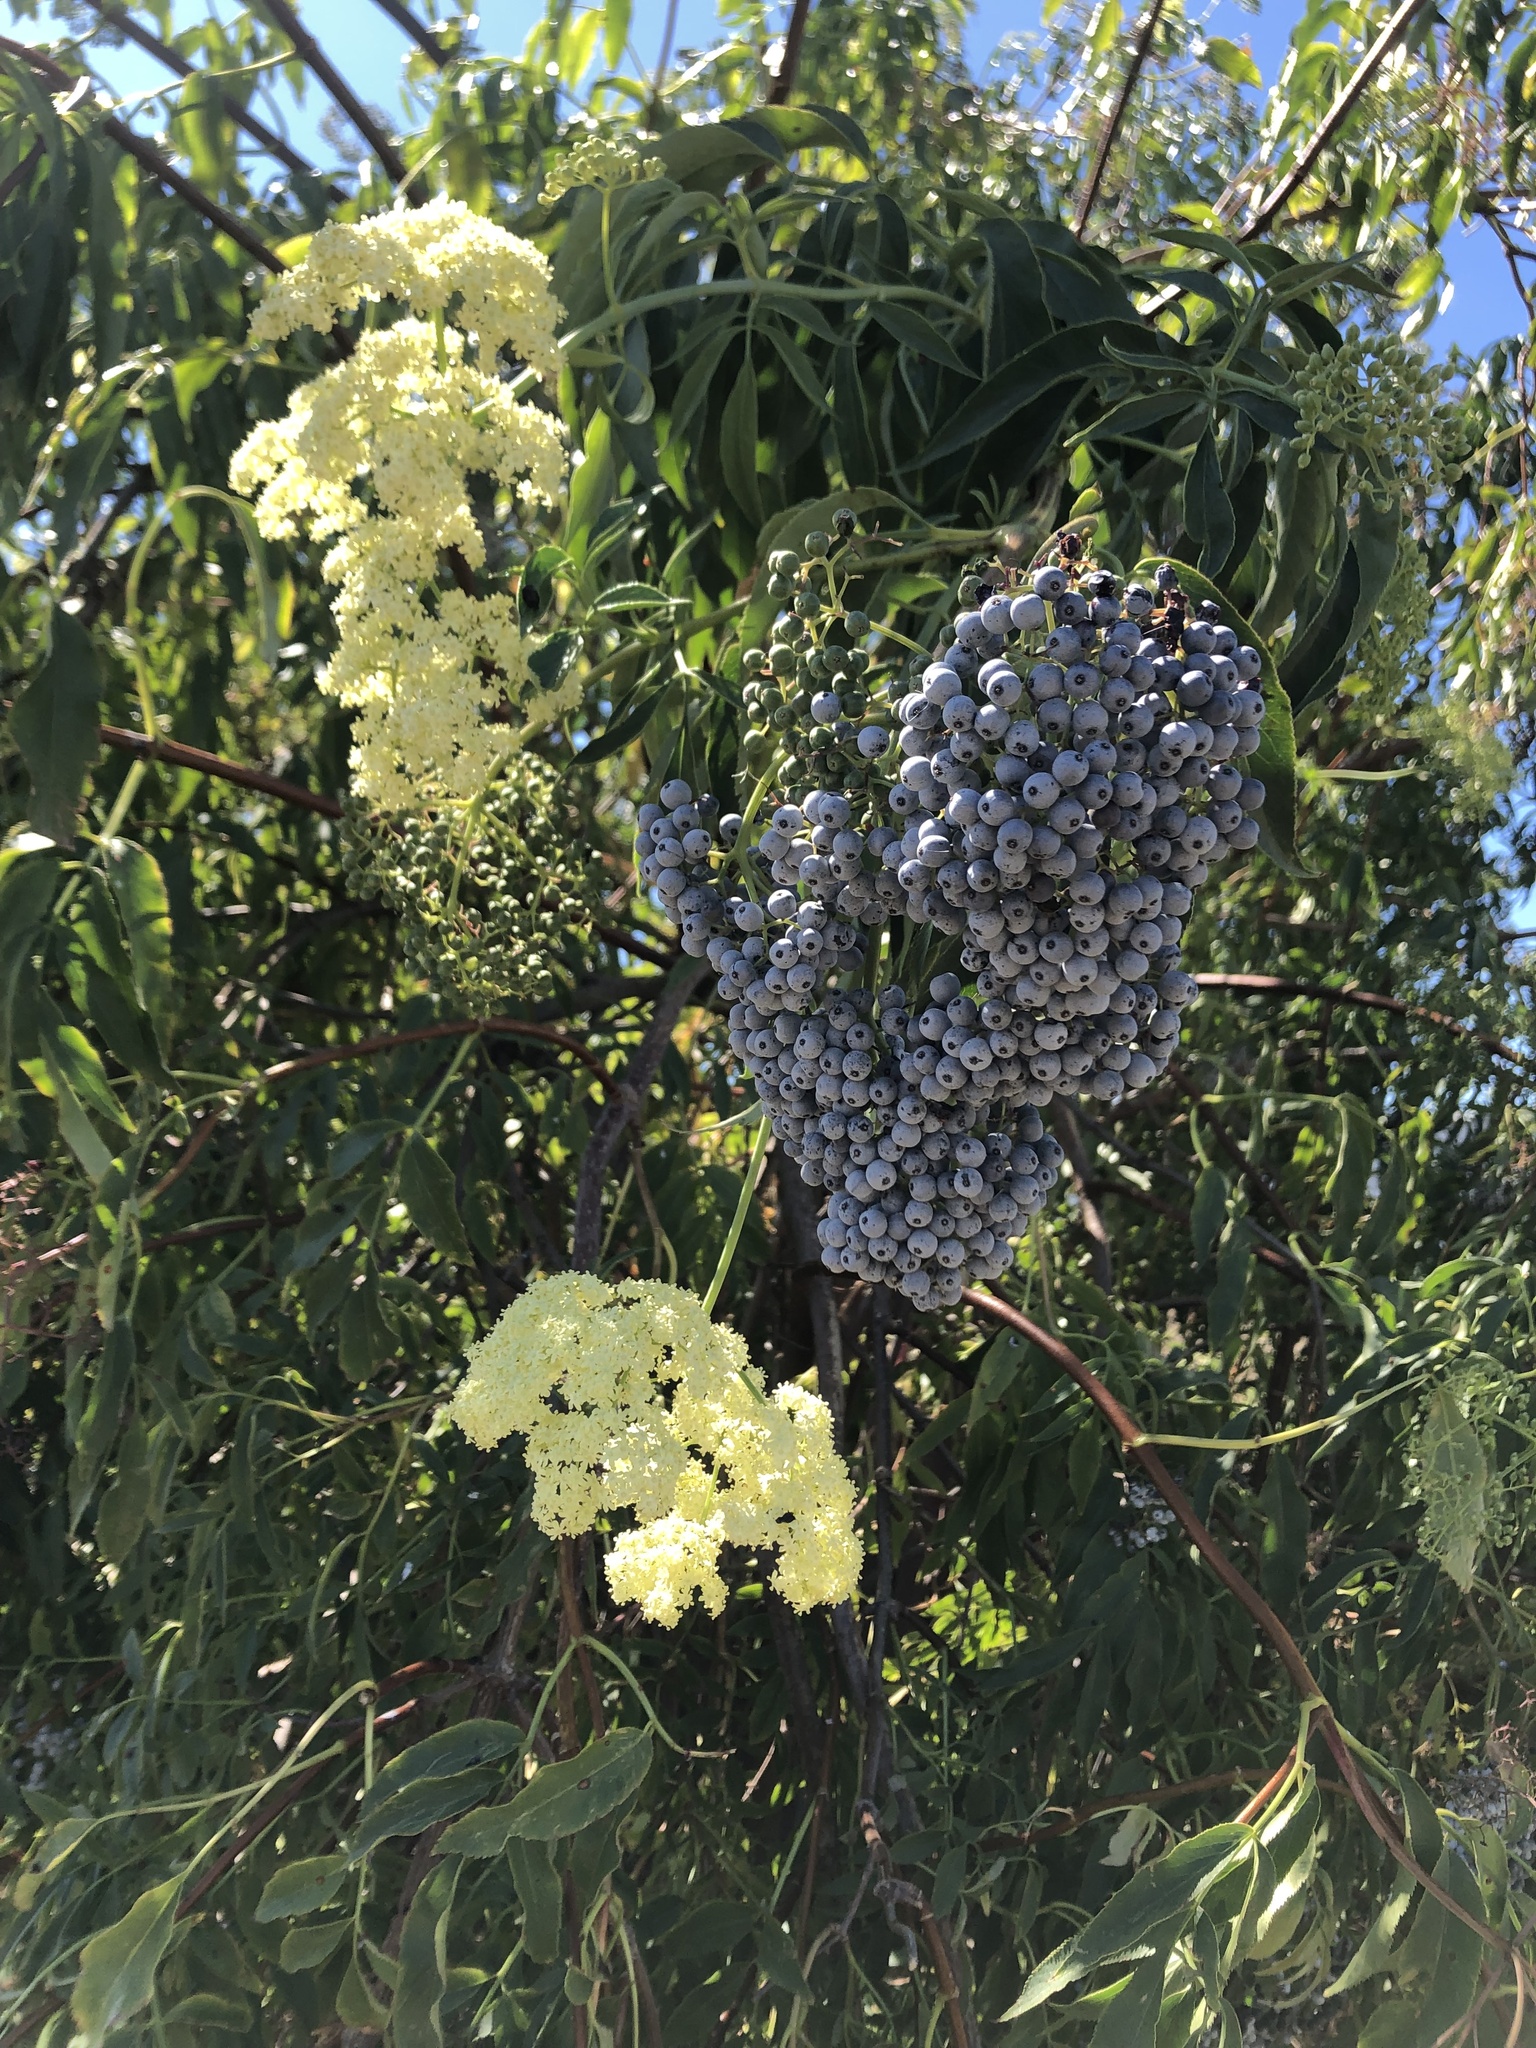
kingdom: Plantae
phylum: Tracheophyta
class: Magnoliopsida
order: Dipsacales
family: Viburnaceae
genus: Sambucus
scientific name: Sambucus cerulea
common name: Blue elder
